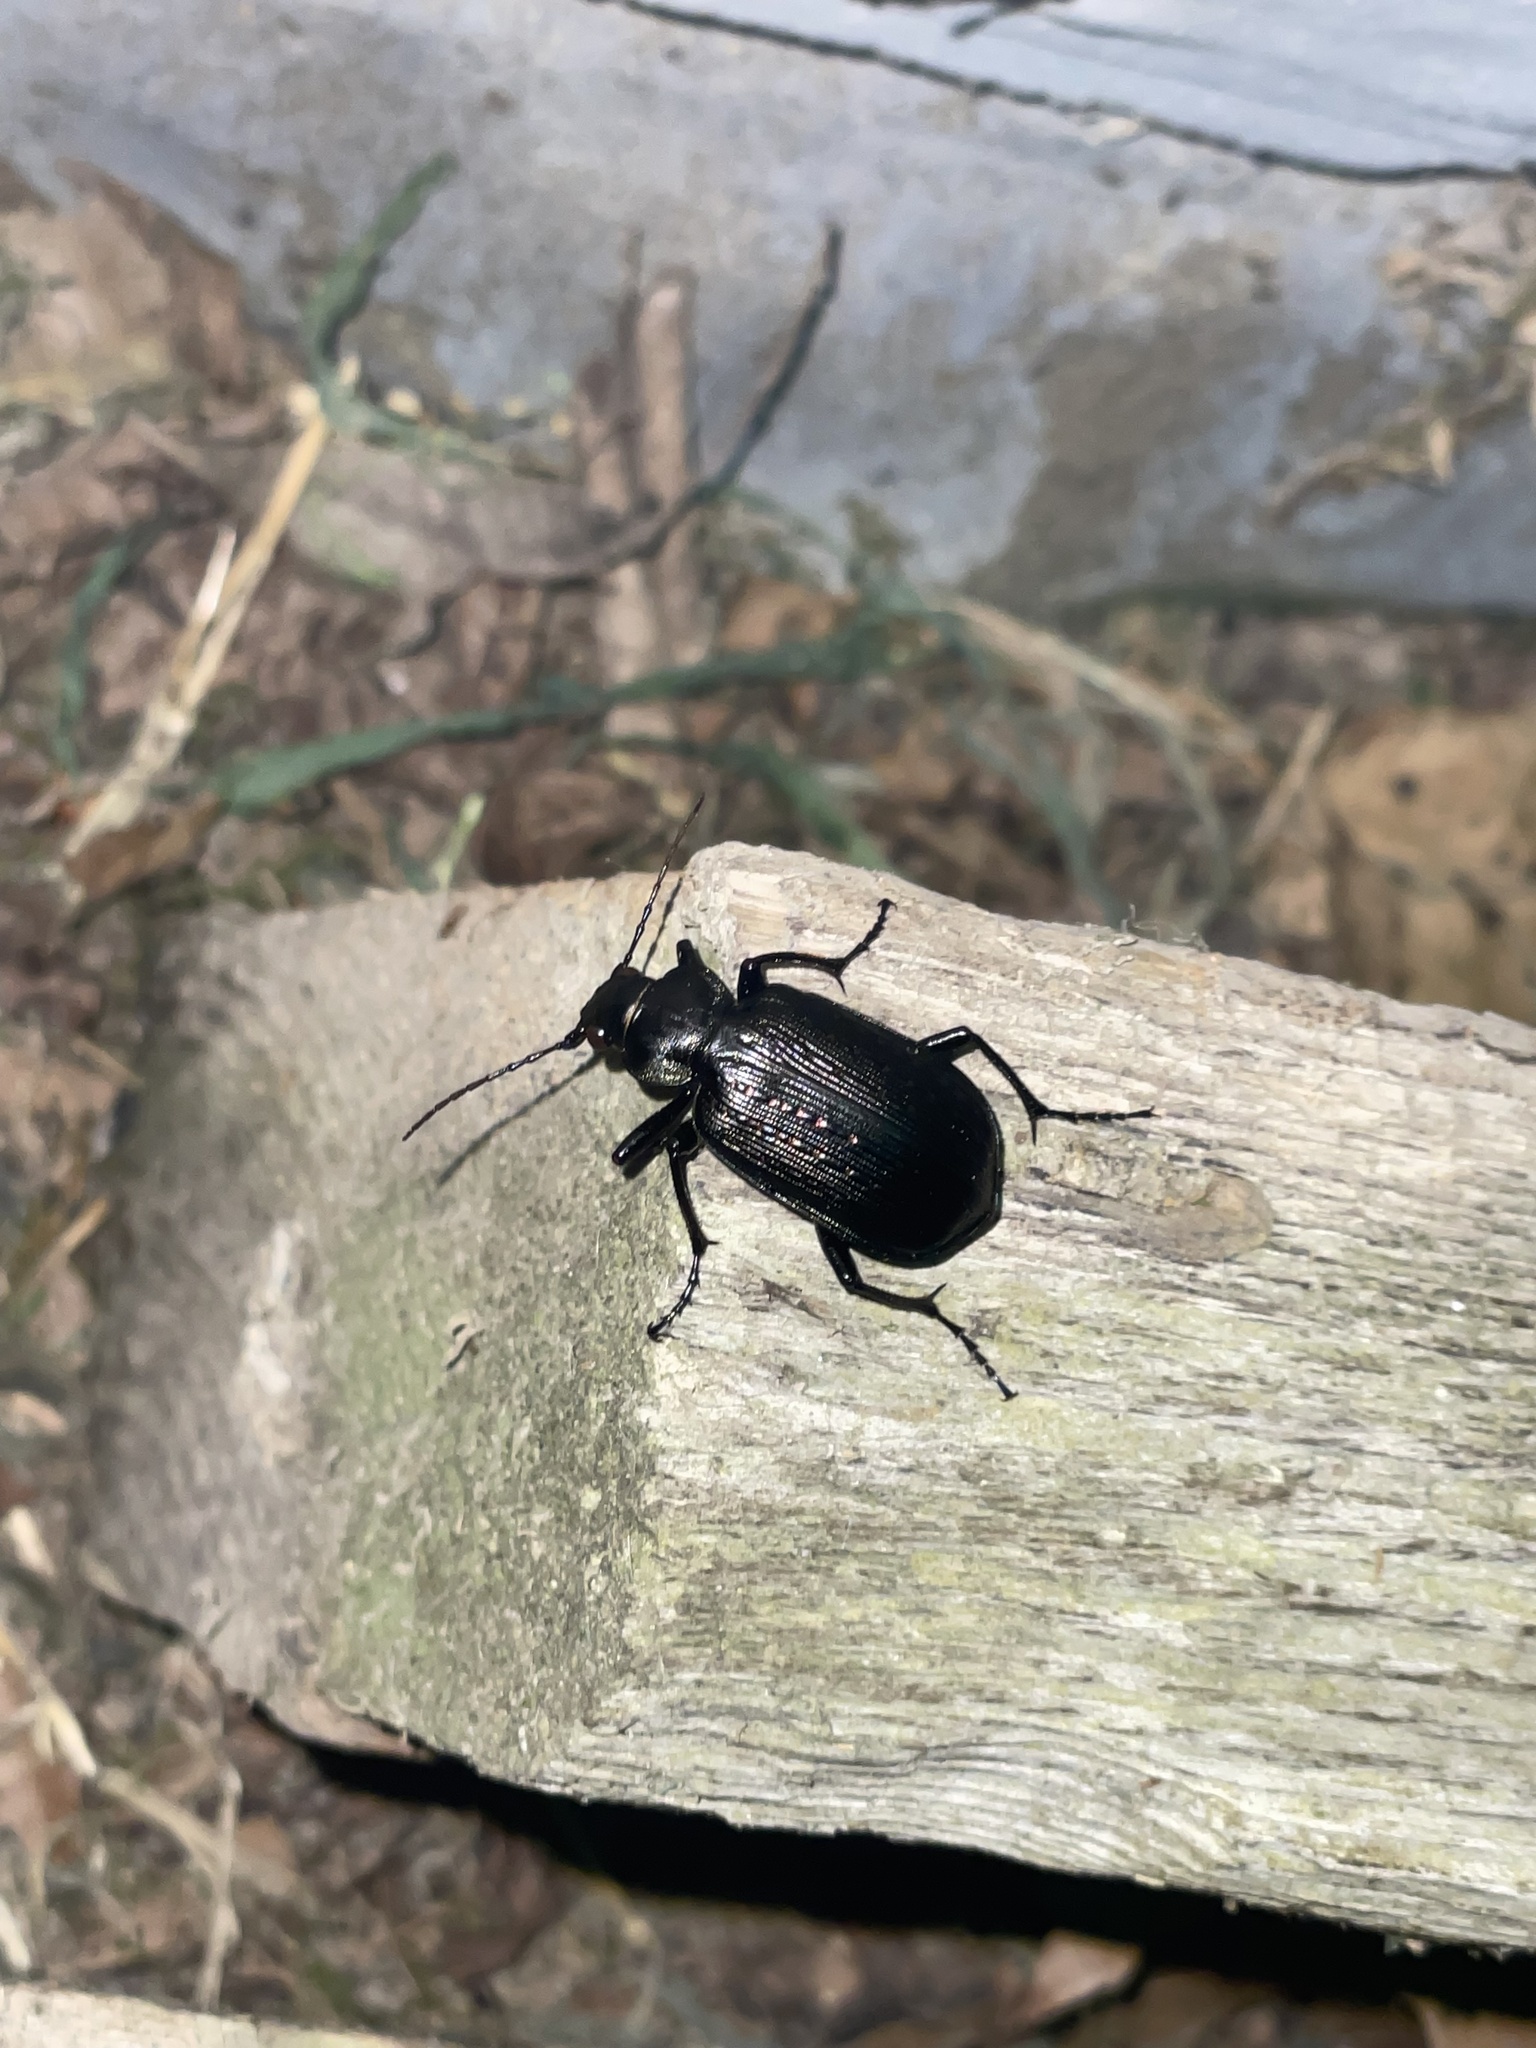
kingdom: Animalia
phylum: Arthropoda
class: Insecta
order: Coleoptera
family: Carabidae
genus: Calosoma
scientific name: Calosoma sayi
